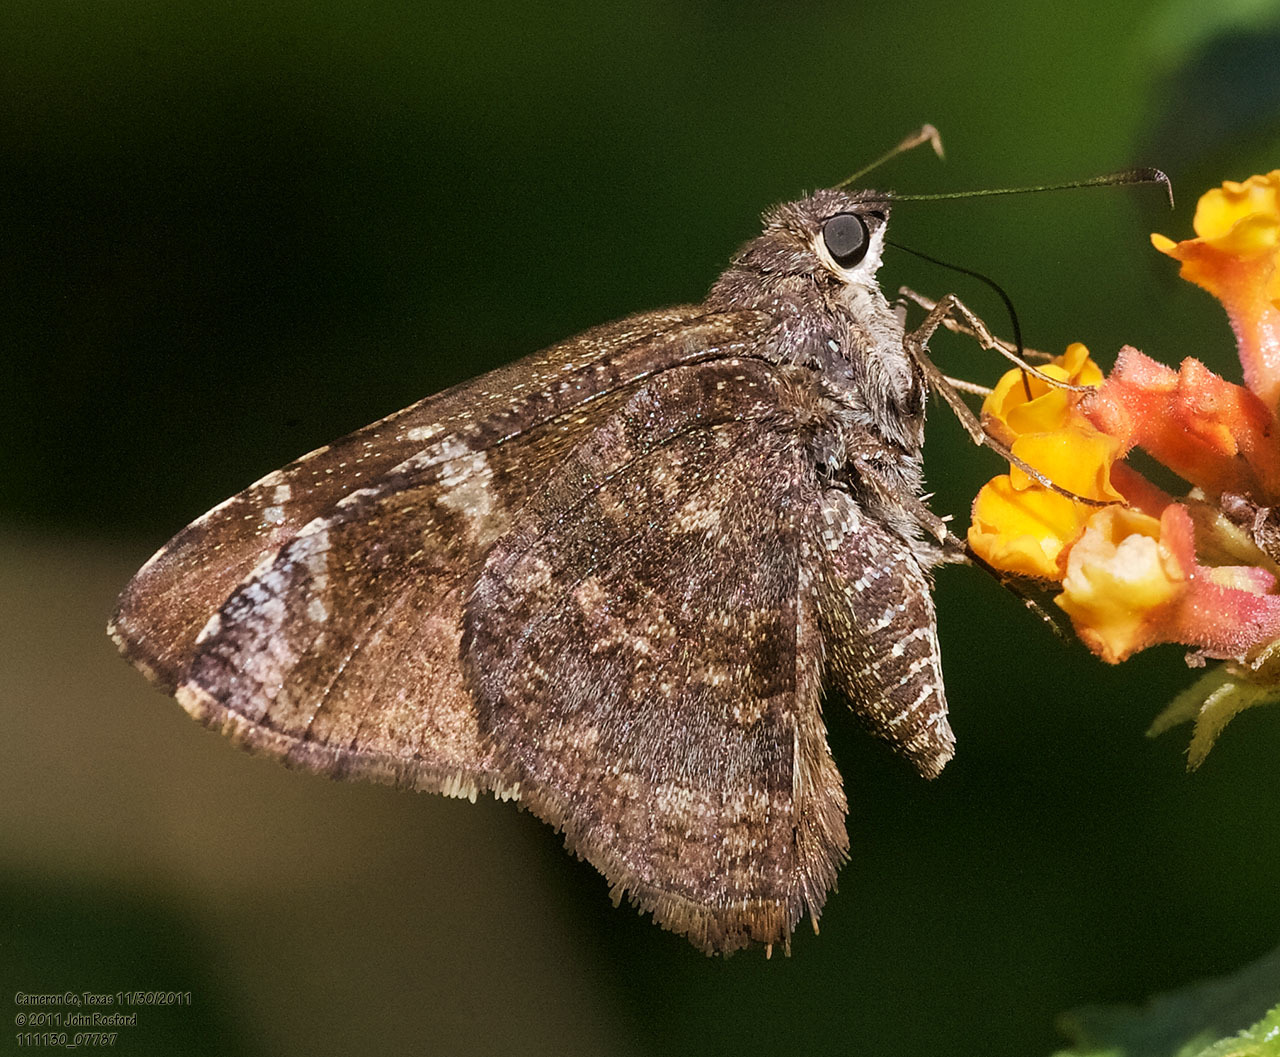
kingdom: Animalia
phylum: Arthropoda
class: Insecta
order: Lepidoptera
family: Hesperiidae
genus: Caicella
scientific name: Caicella calchas
